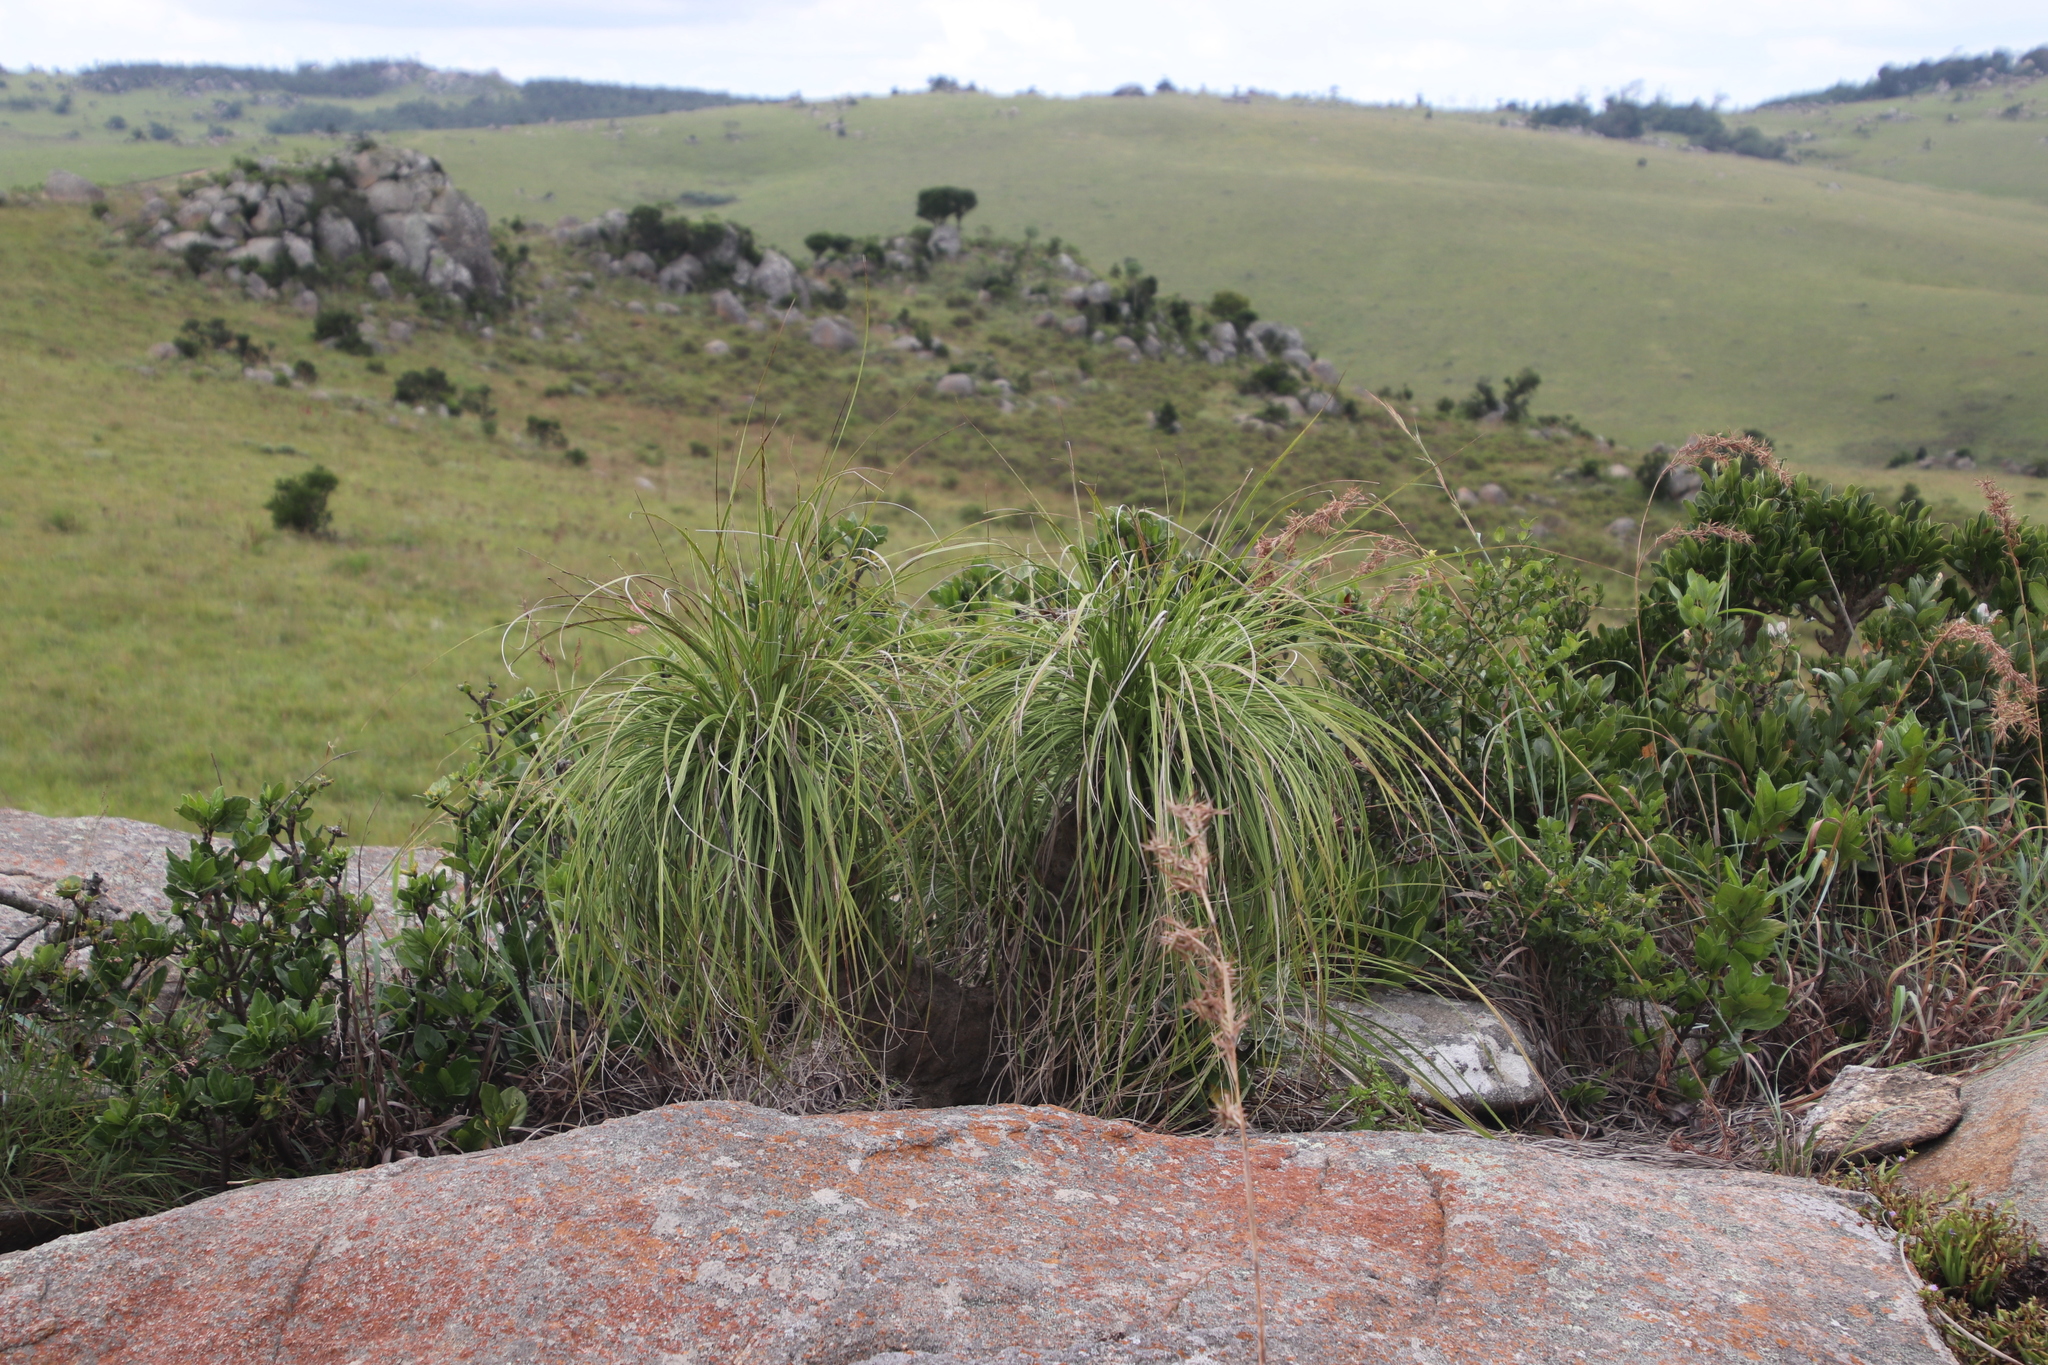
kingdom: Plantae
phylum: Tracheophyta
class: Liliopsida
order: Pandanales
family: Velloziaceae
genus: Xerophyta
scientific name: Xerophyta retinervis
